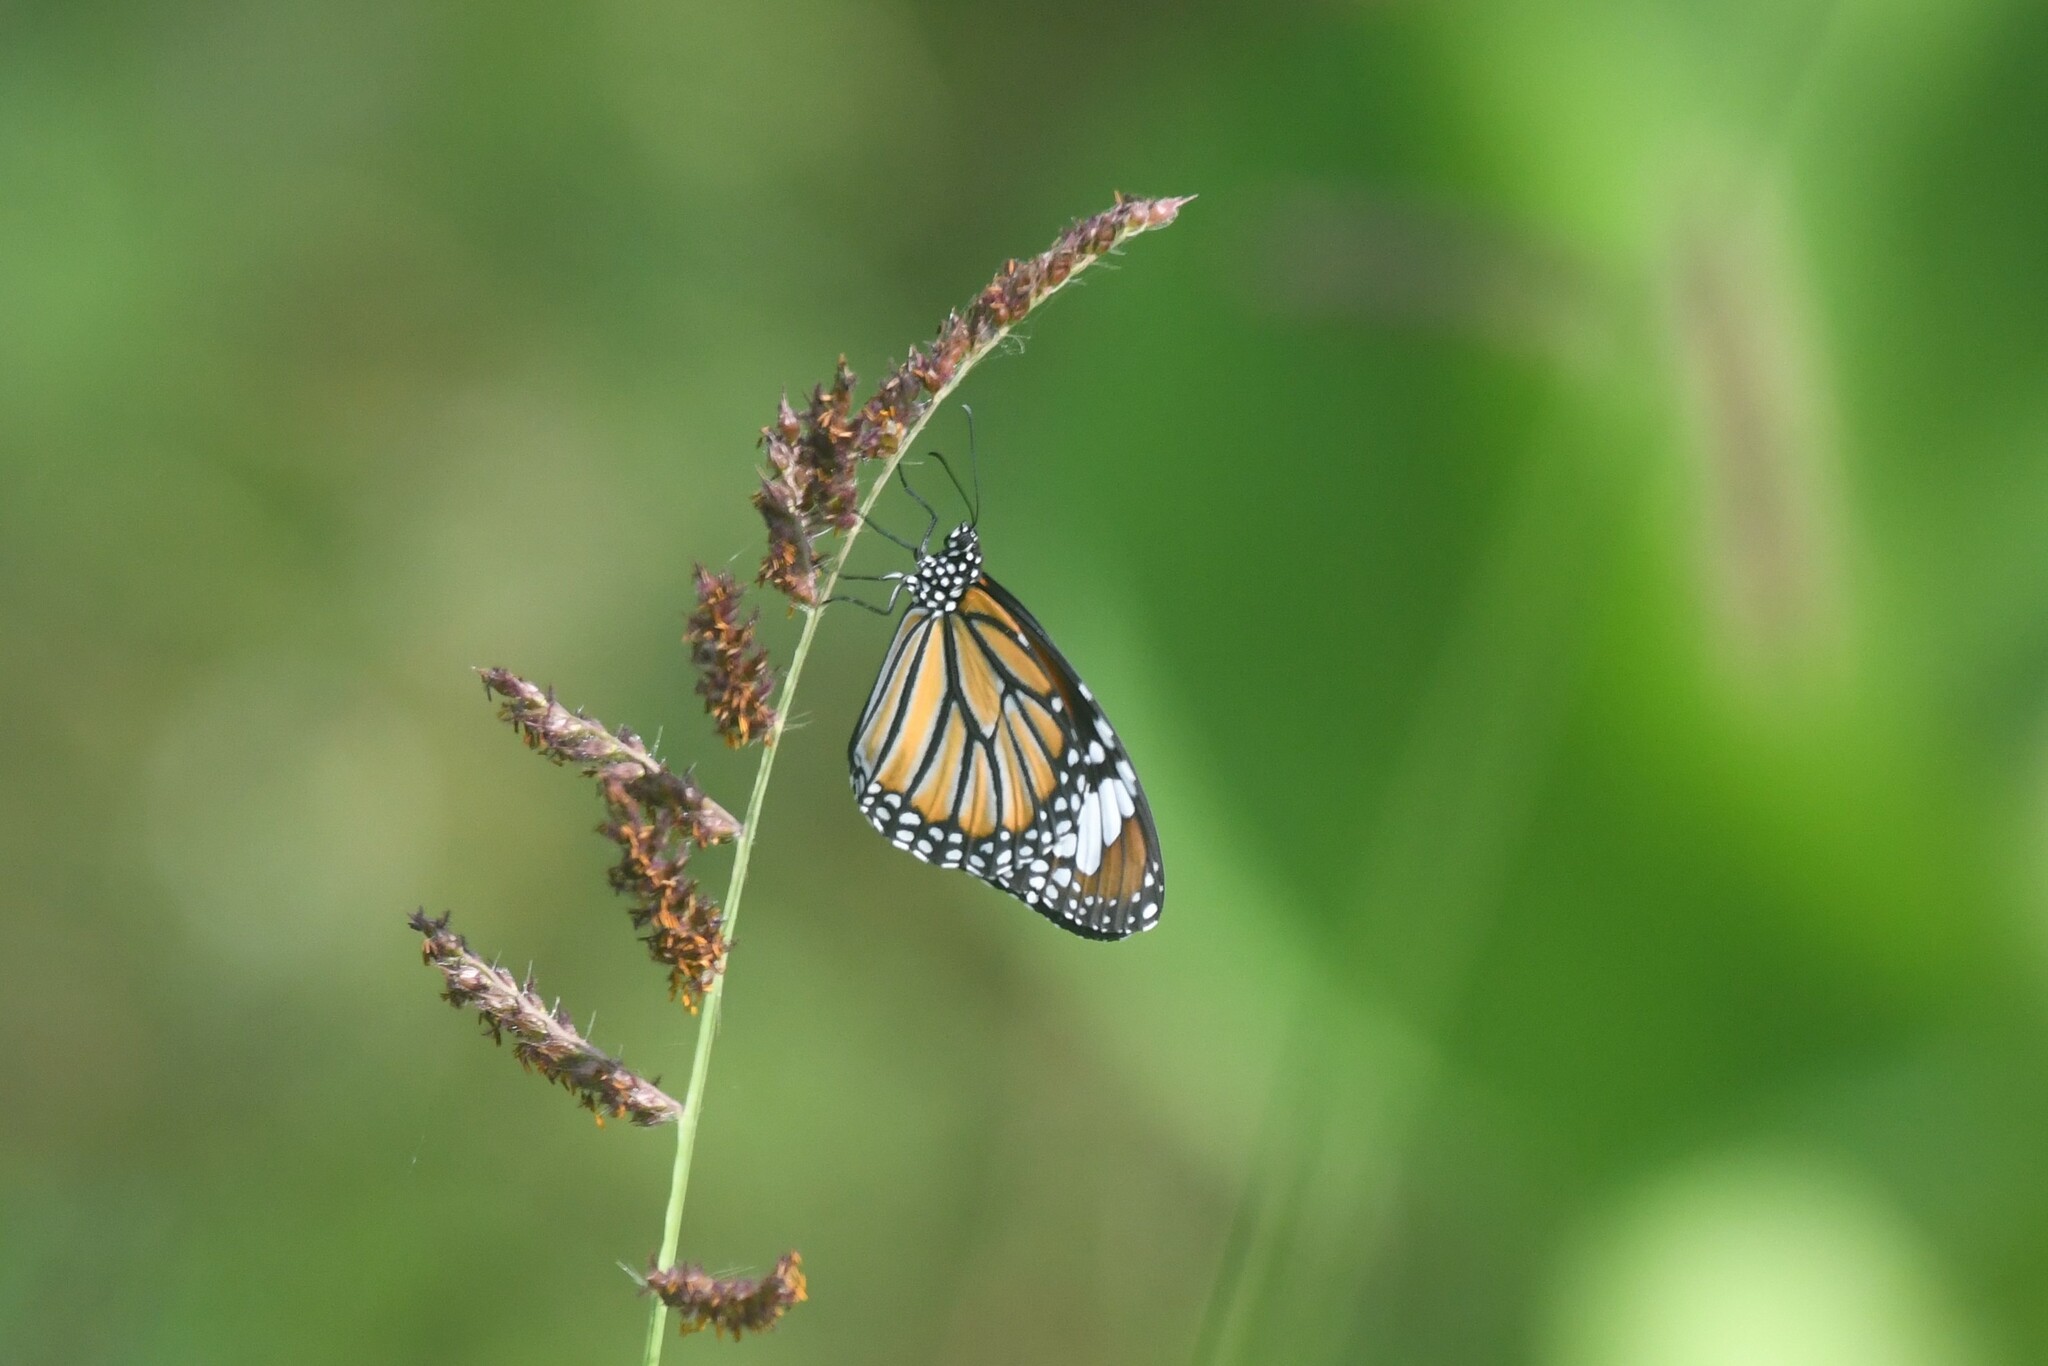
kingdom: Animalia
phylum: Arthropoda
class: Insecta
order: Lepidoptera
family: Nymphalidae
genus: Danaus
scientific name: Danaus genutia
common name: Common tiger butterfly
